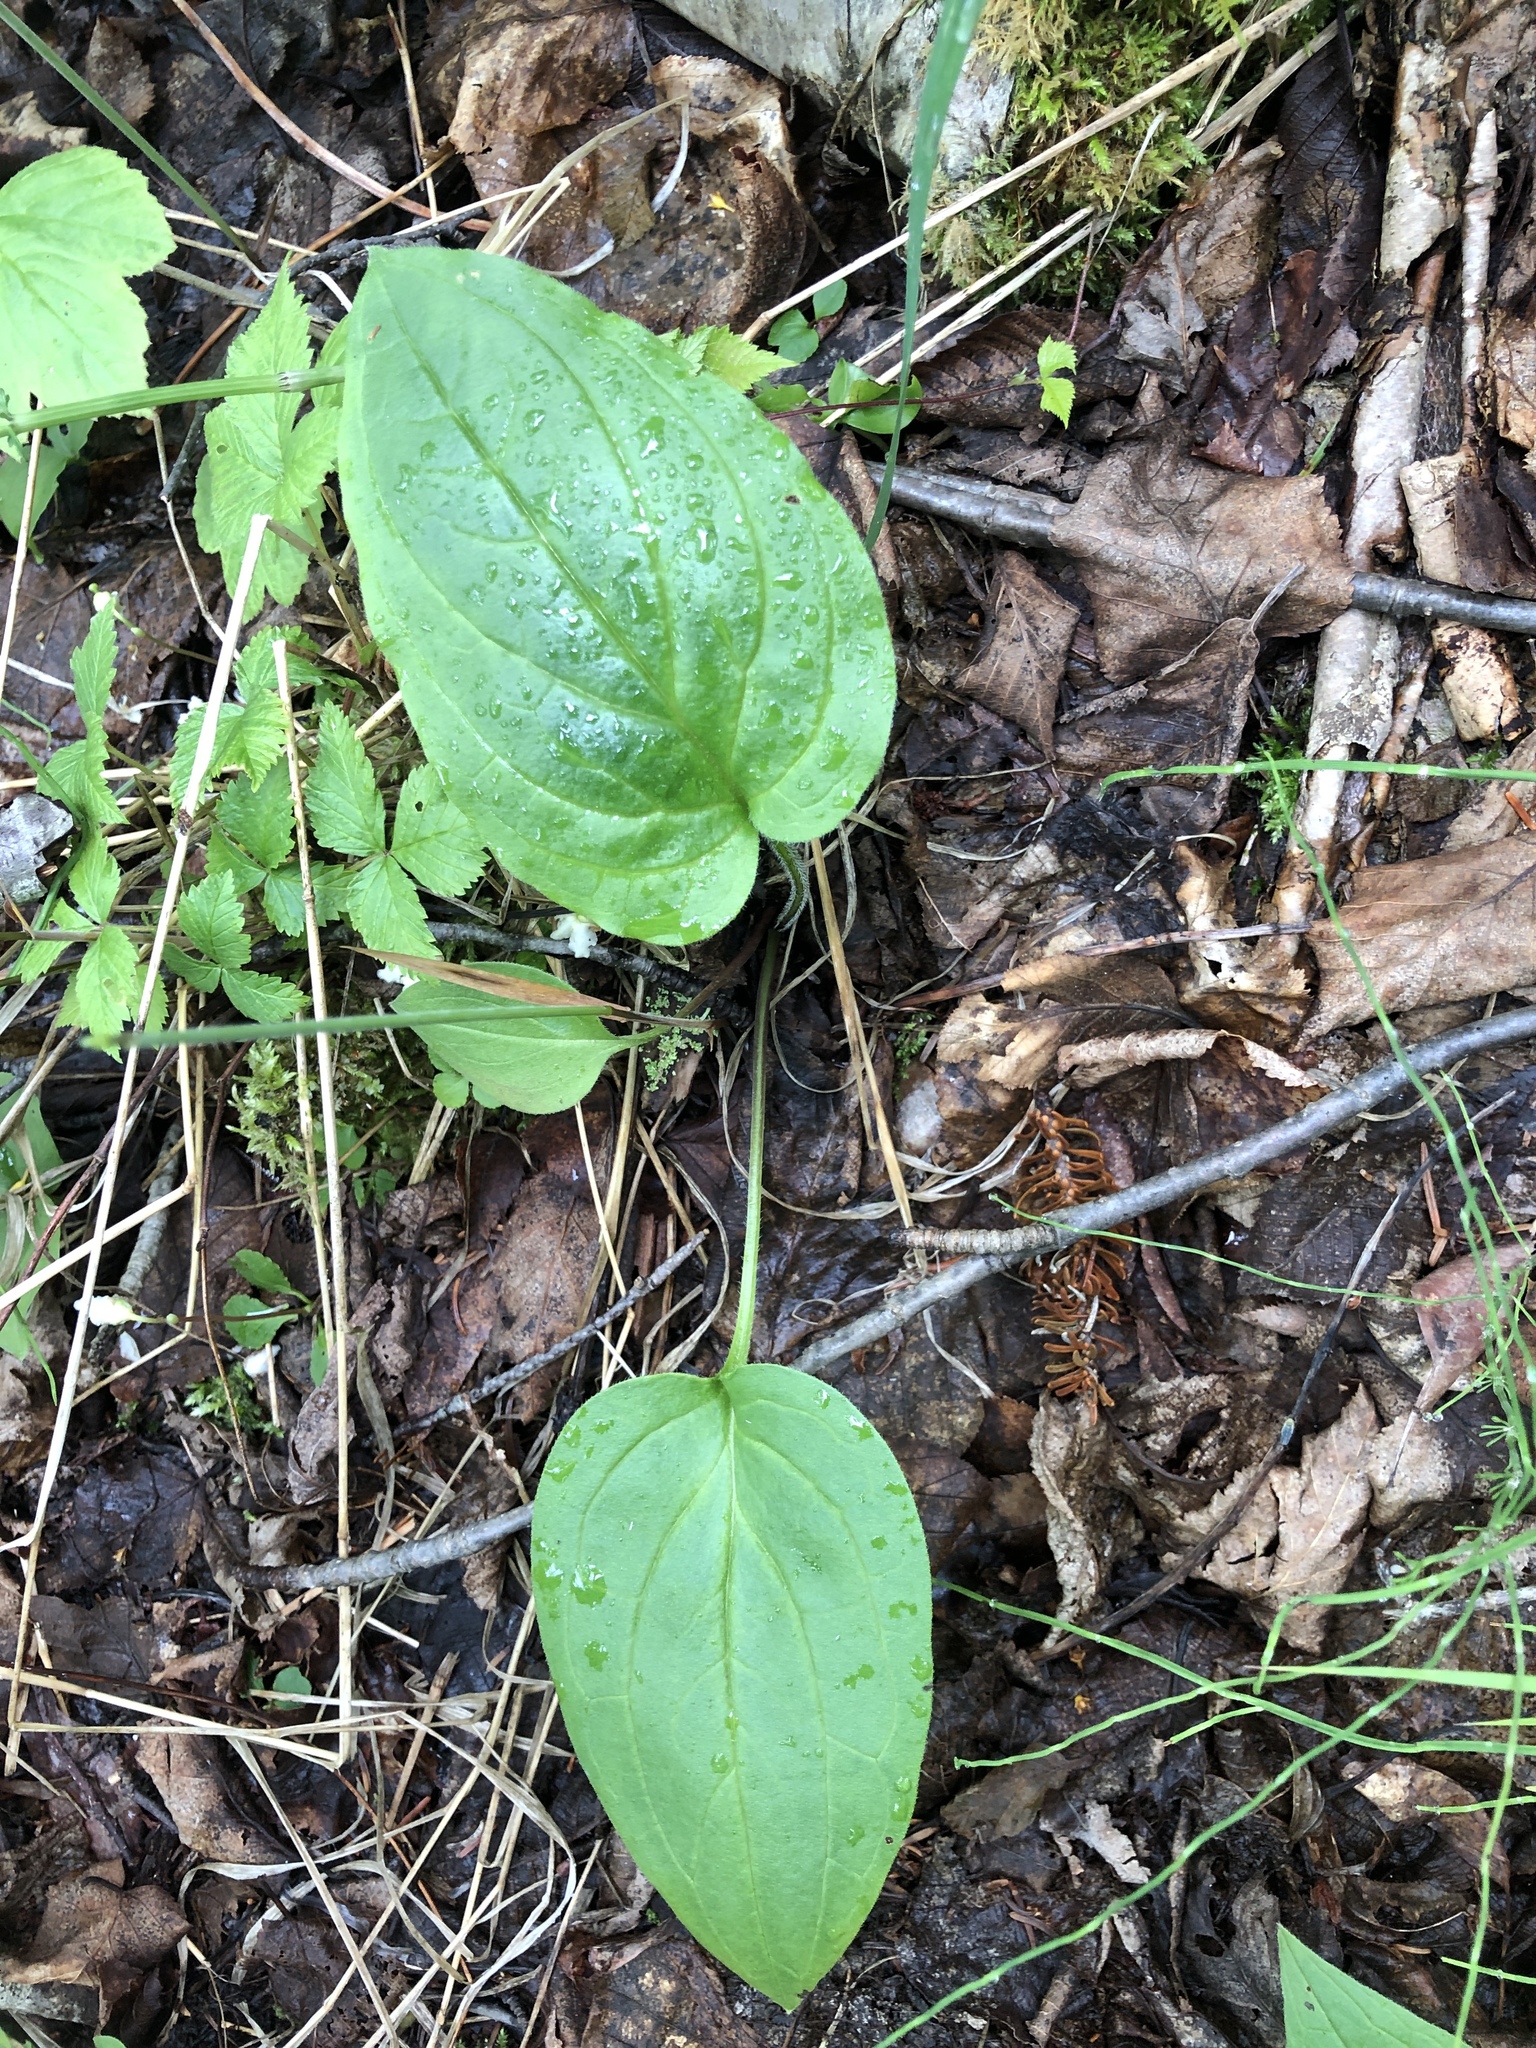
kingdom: Plantae
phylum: Tracheophyta
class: Magnoliopsida
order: Boraginales
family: Boraginaceae
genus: Mertensia
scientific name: Mertensia paniculata
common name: Panicled bluebells
